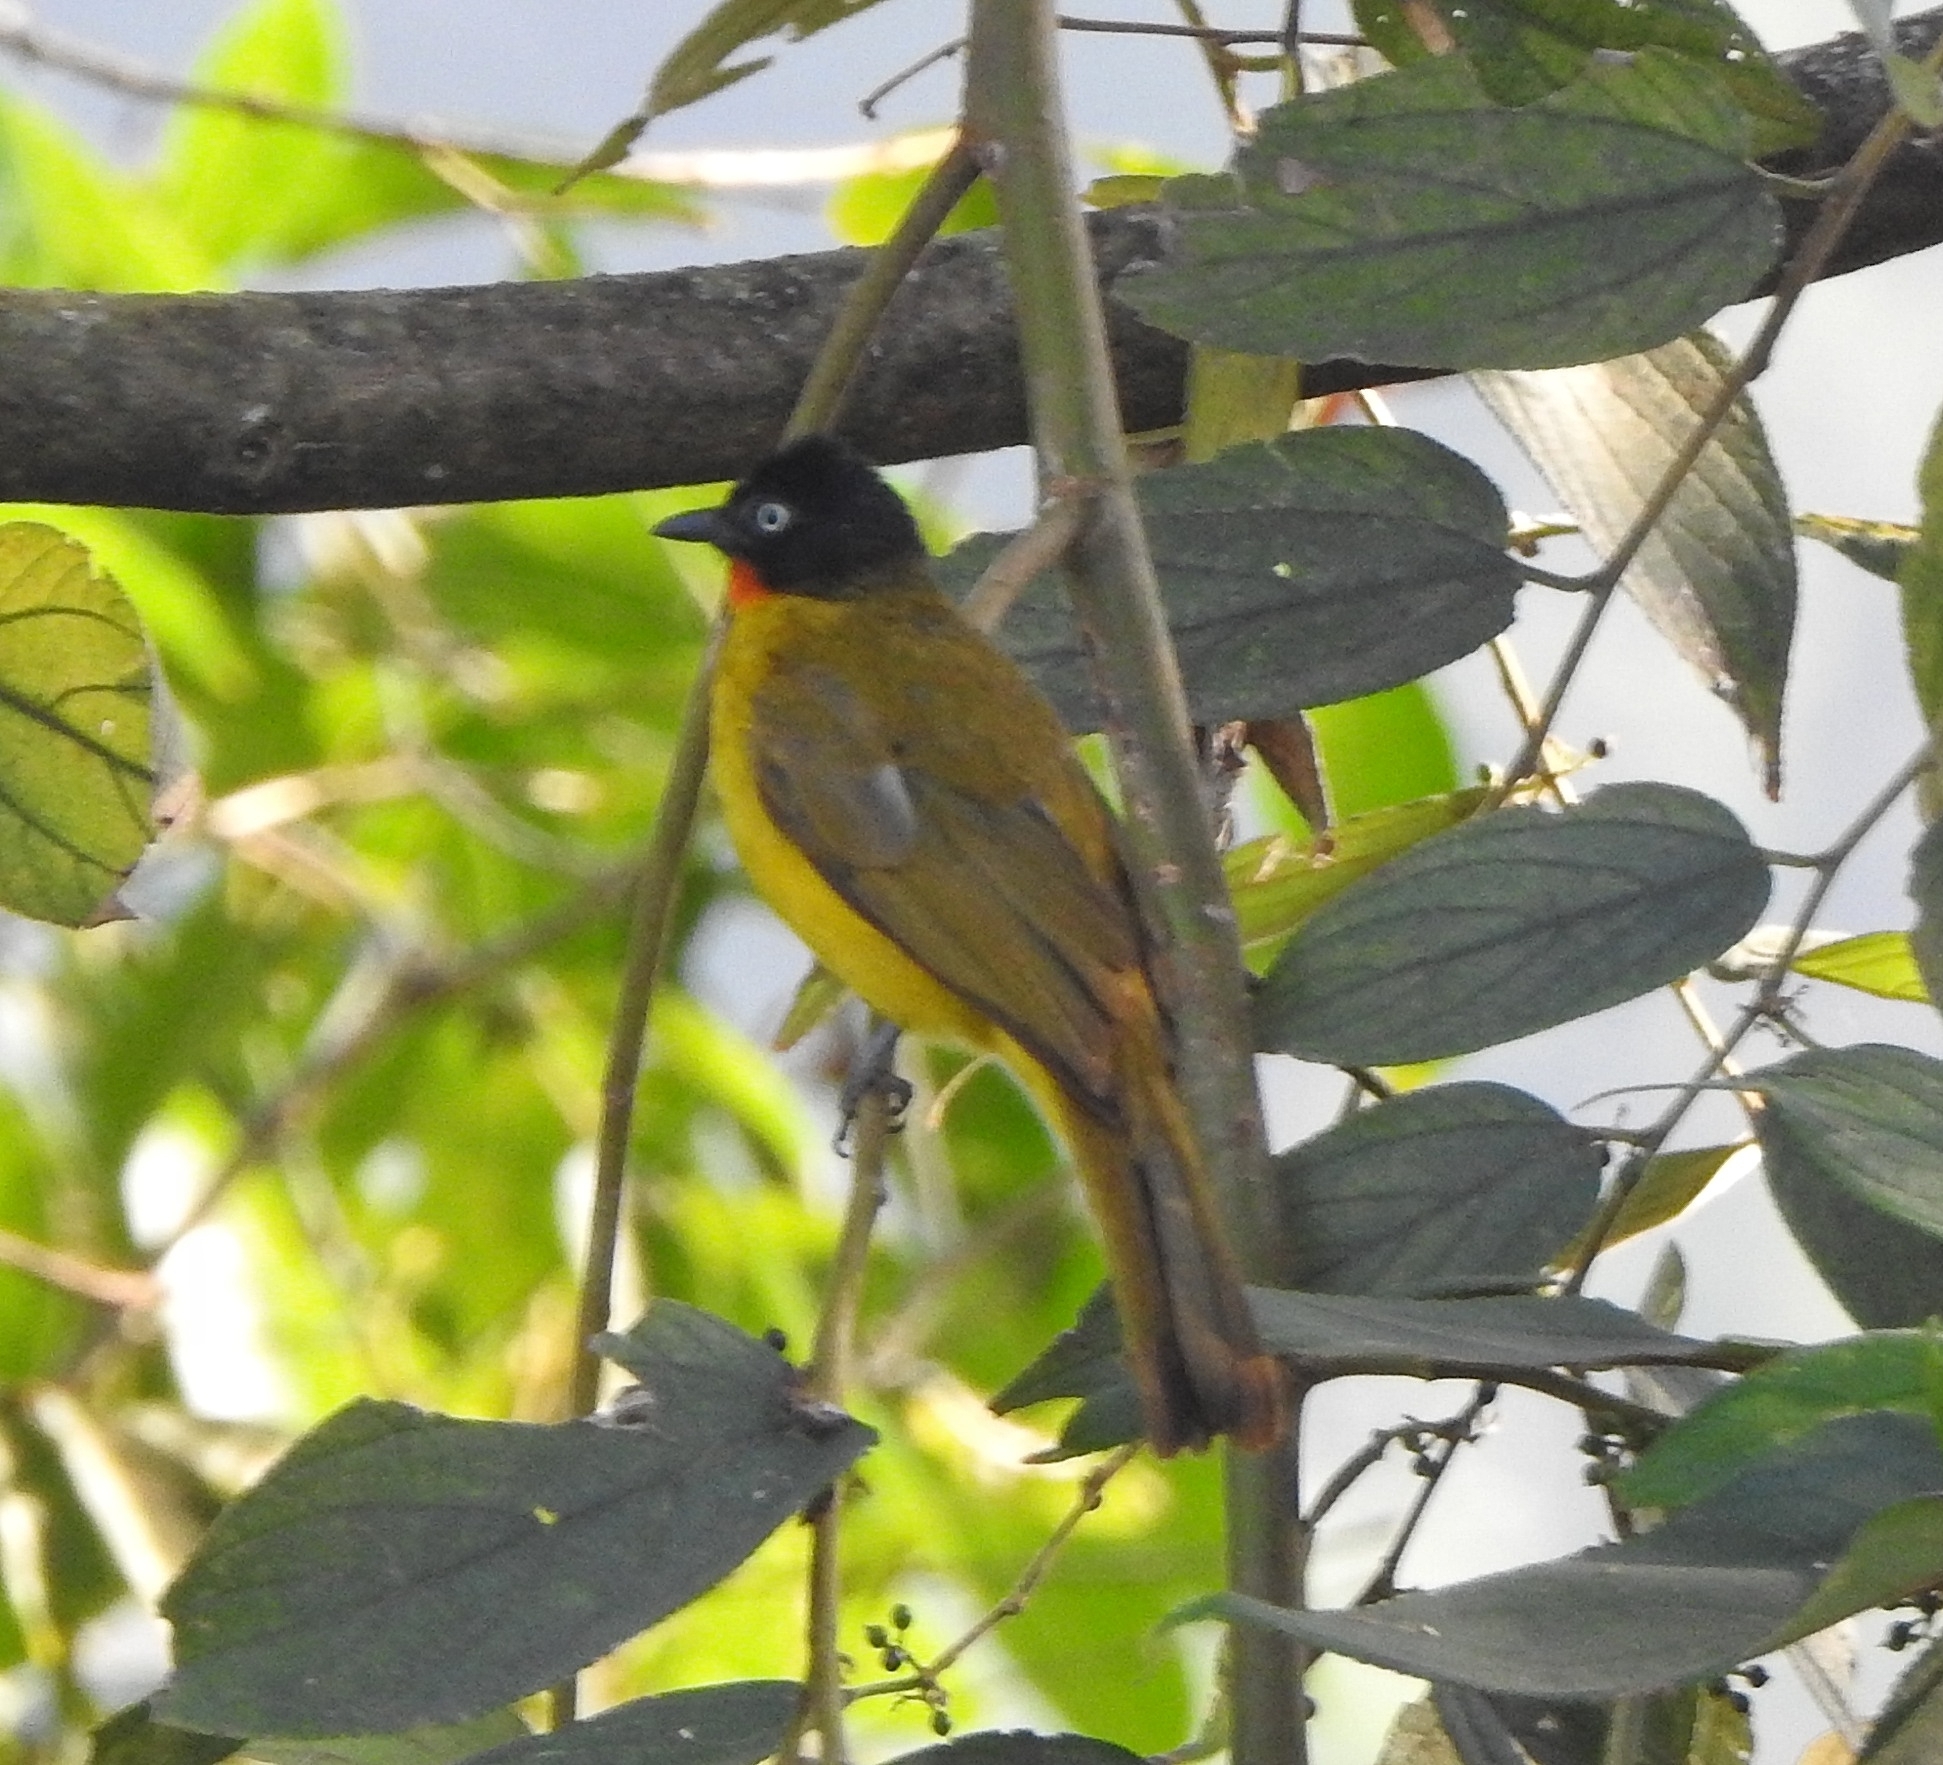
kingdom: Animalia
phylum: Chordata
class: Aves
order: Passeriformes
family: Pycnonotidae
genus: Pycnonotus
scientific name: Pycnonotus gularis
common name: Flame-throated bulbul
